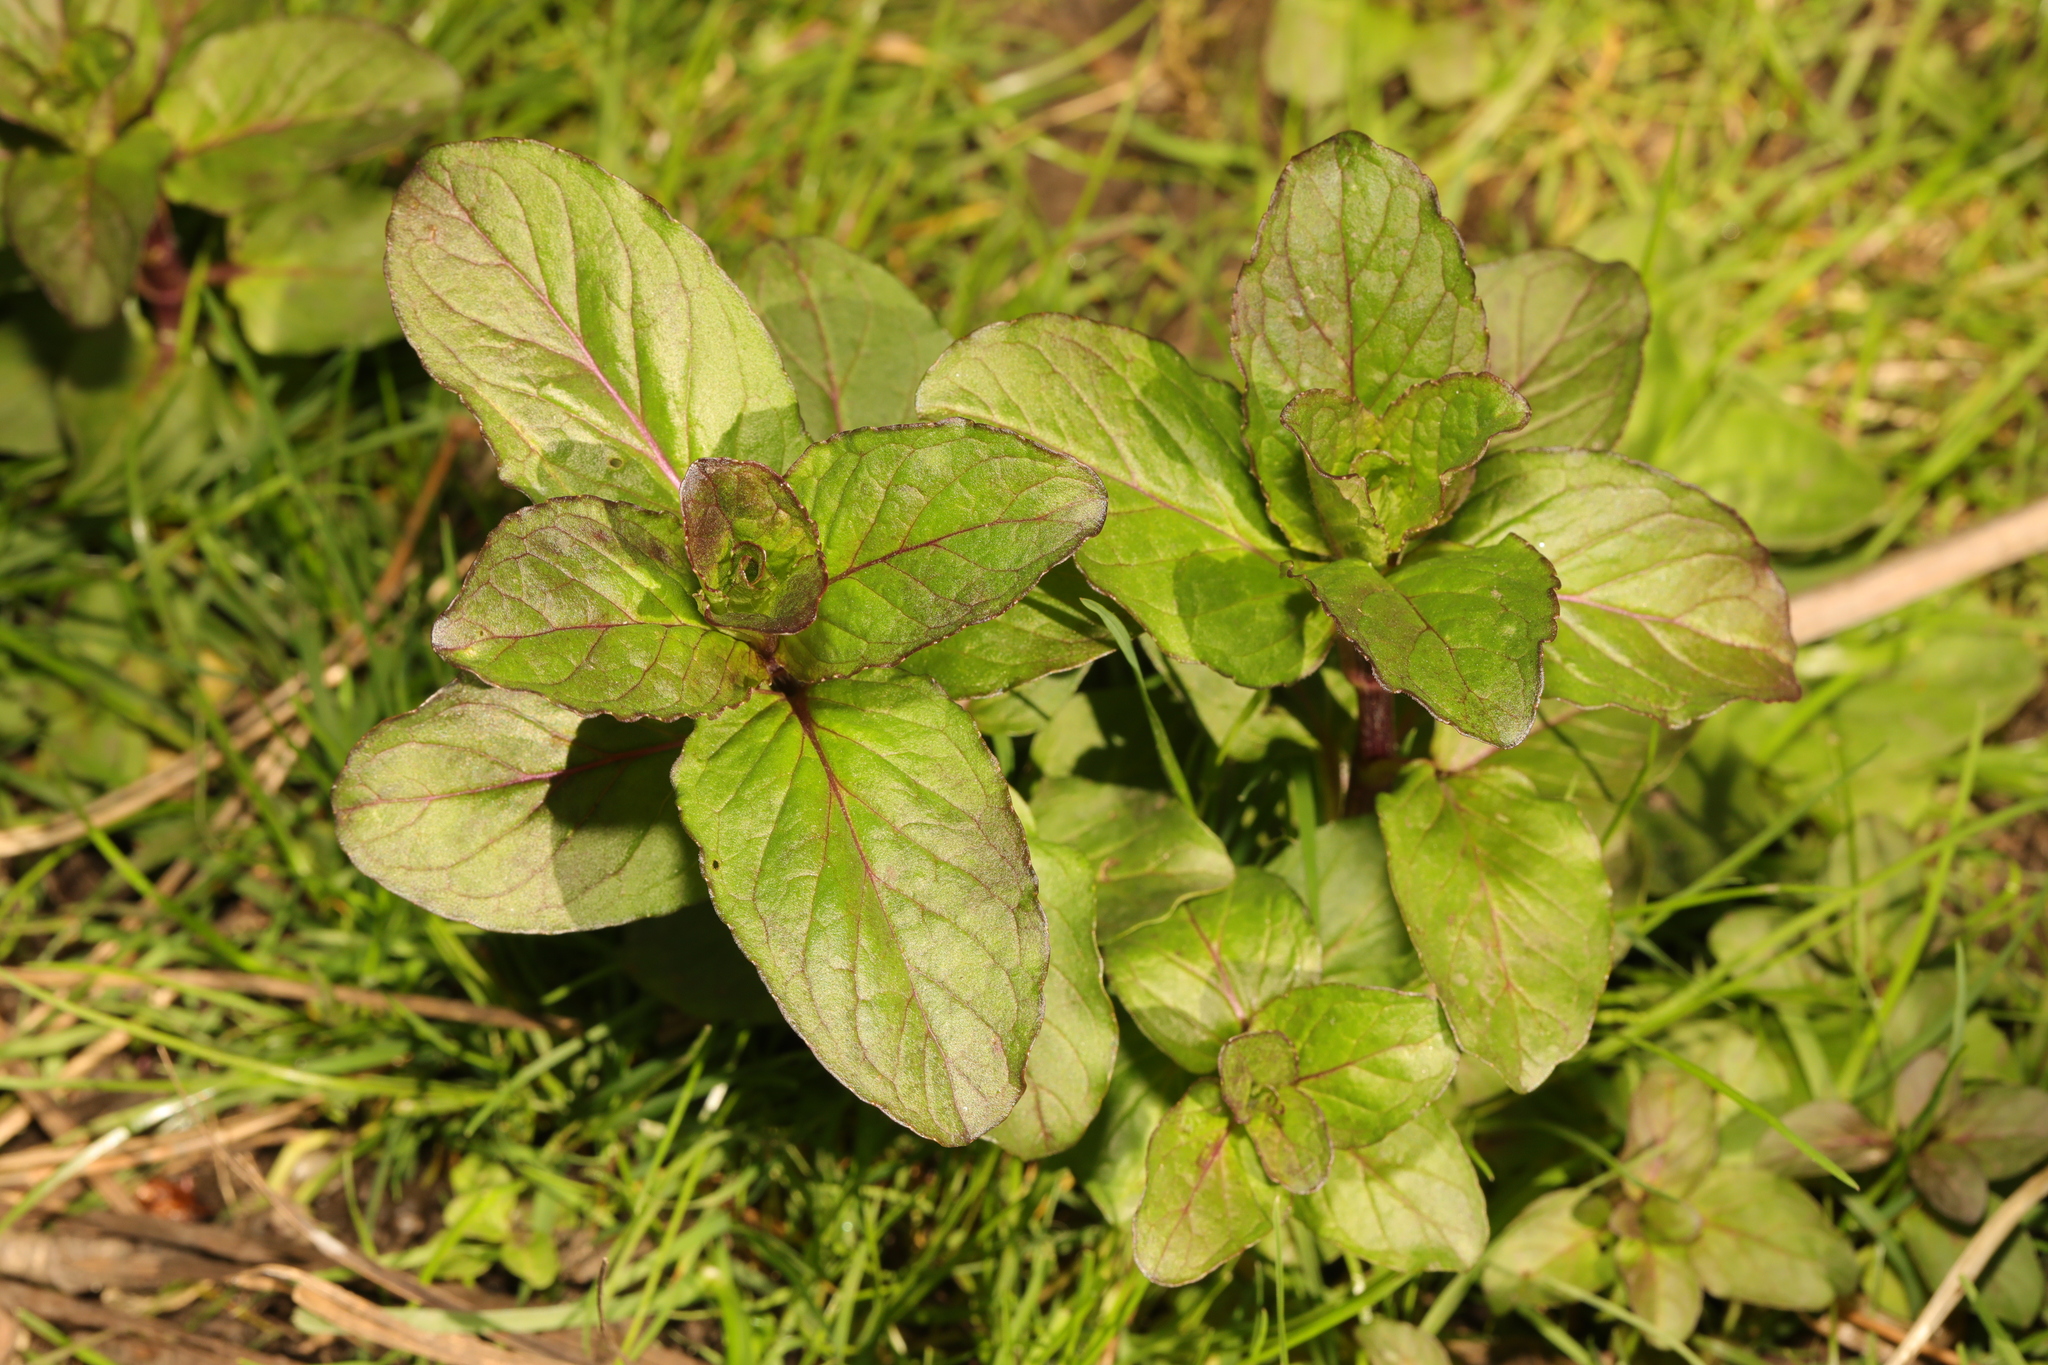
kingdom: Plantae
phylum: Tracheophyta
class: Magnoliopsida
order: Lamiales
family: Lamiaceae
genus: Mentha
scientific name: Mentha aquatica
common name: Water mint
